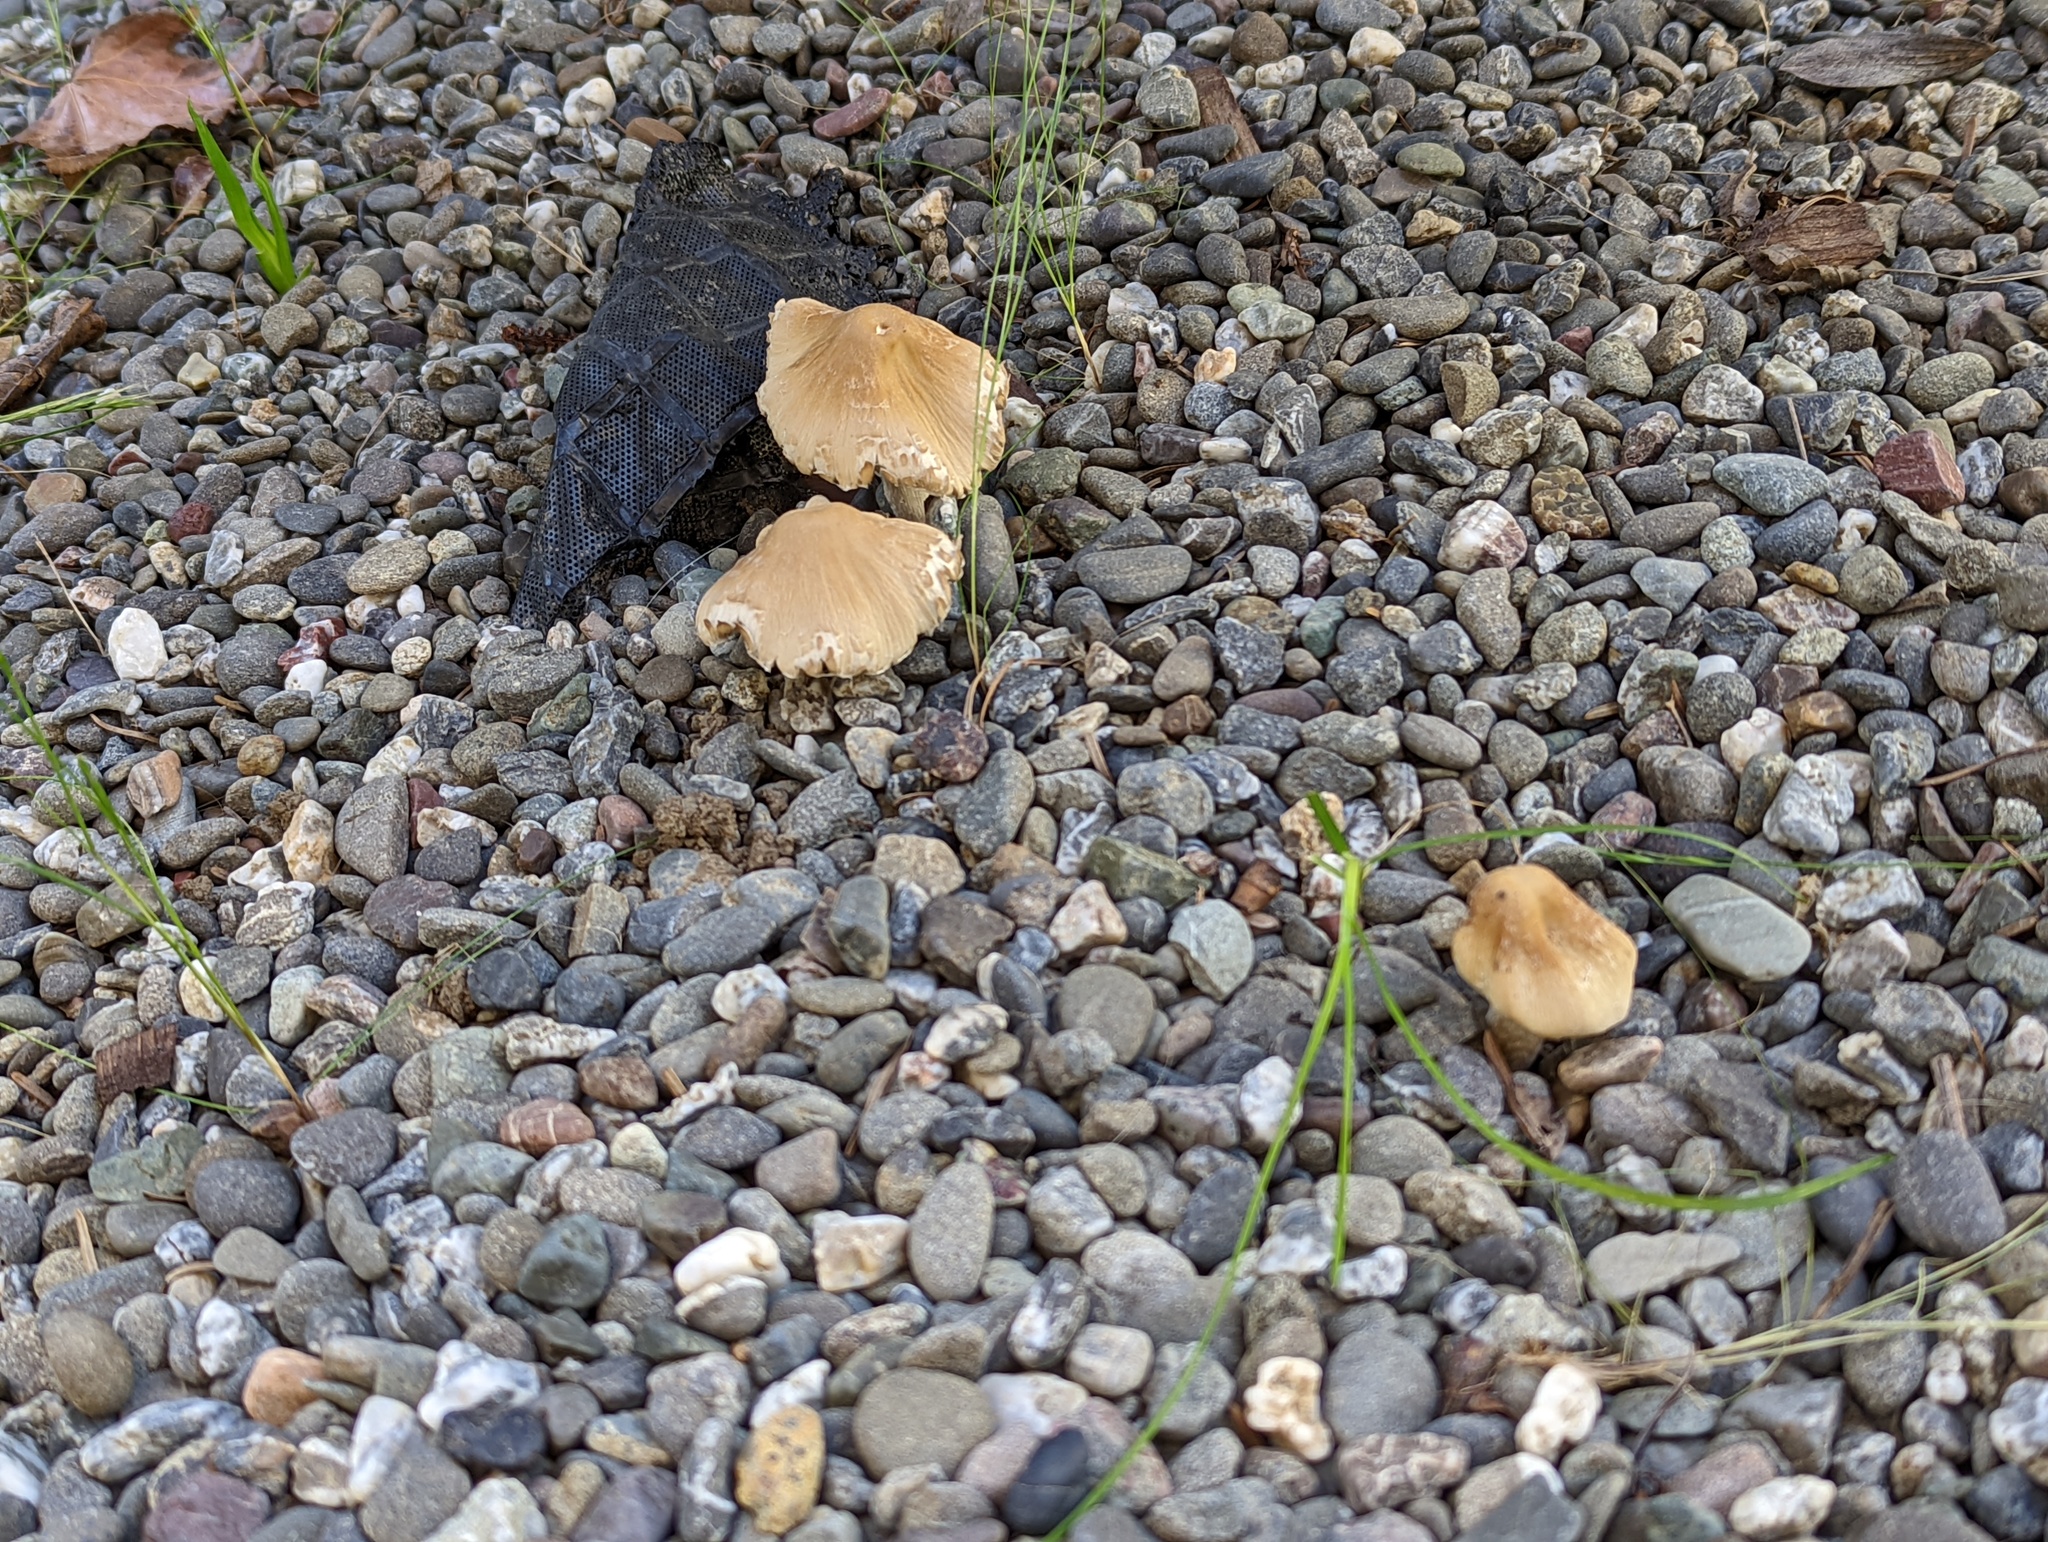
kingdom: Fungi
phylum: Basidiomycota
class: Agaricomycetes
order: Agaricales
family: Psathyrellaceae
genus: Candolleomyces
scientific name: Candolleomyces candolleanus
